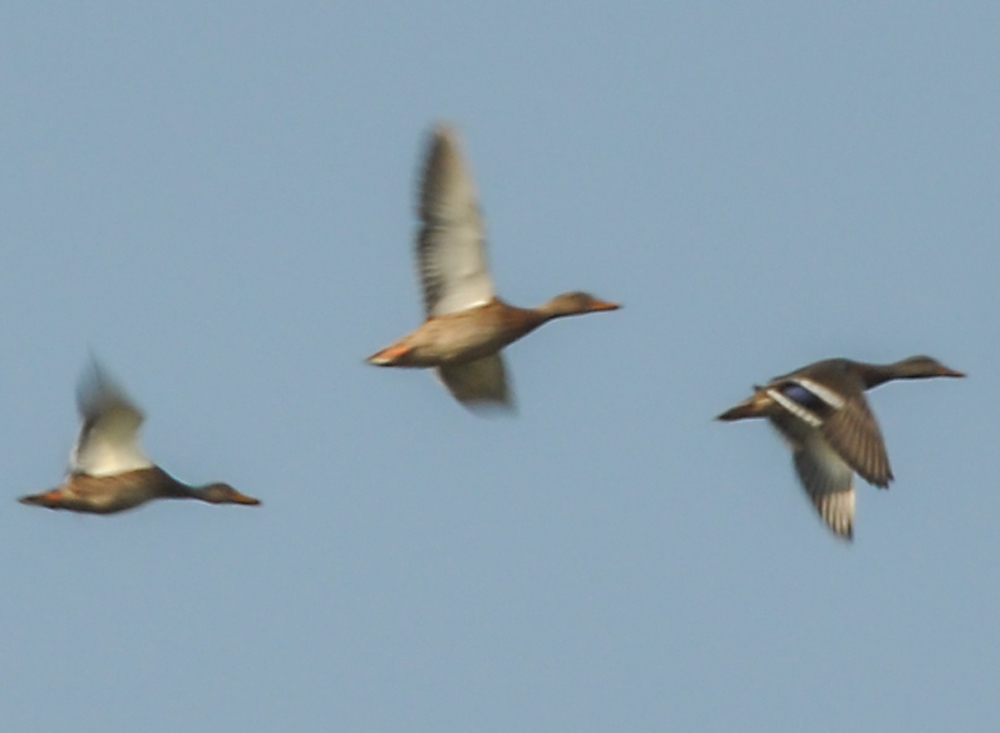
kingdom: Animalia
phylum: Chordata
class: Aves
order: Anseriformes
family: Anatidae
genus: Anas
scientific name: Anas platyrhynchos
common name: Mallard
